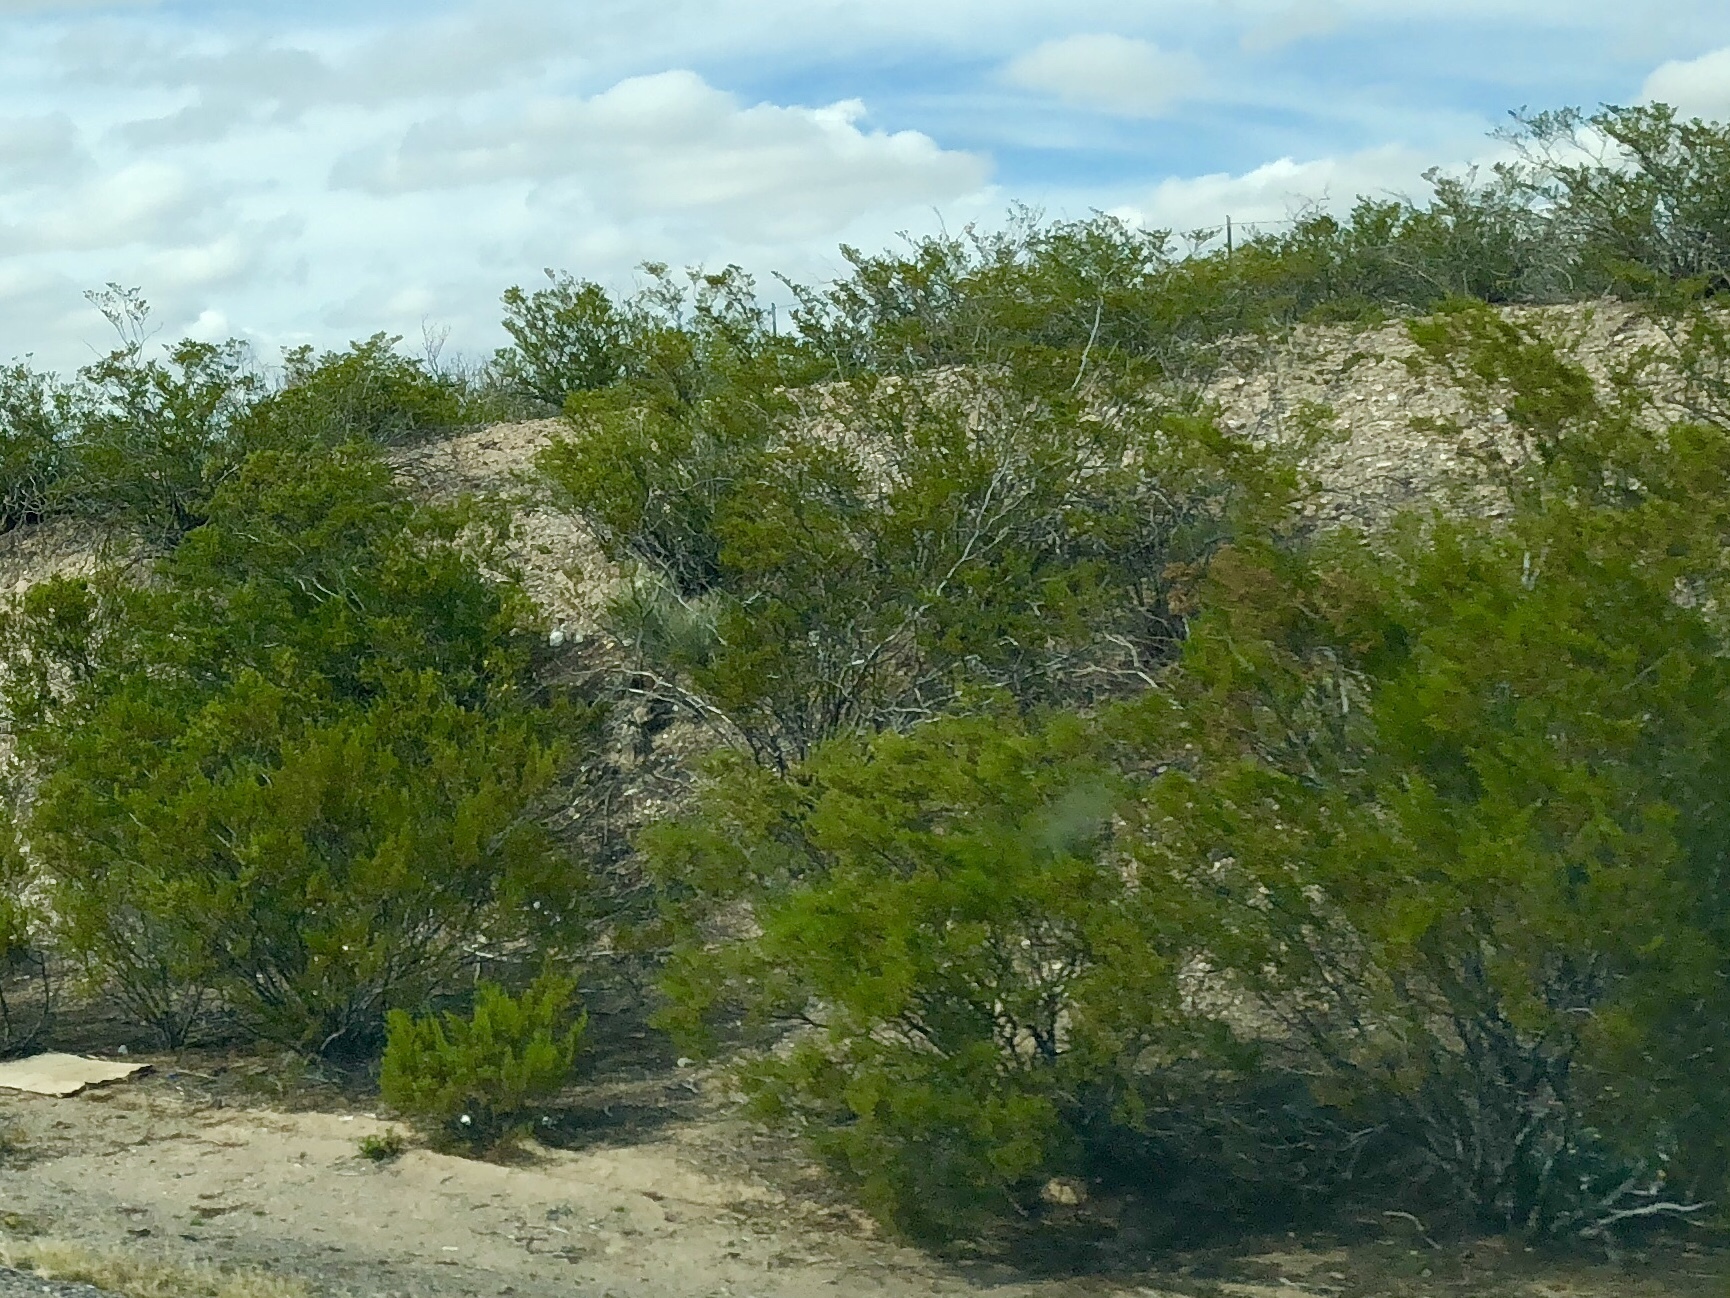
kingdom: Plantae
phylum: Tracheophyta
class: Magnoliopsida
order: Zygophyllales
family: Zygophyllaceae
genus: Larrea
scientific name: Larrea tridentata
